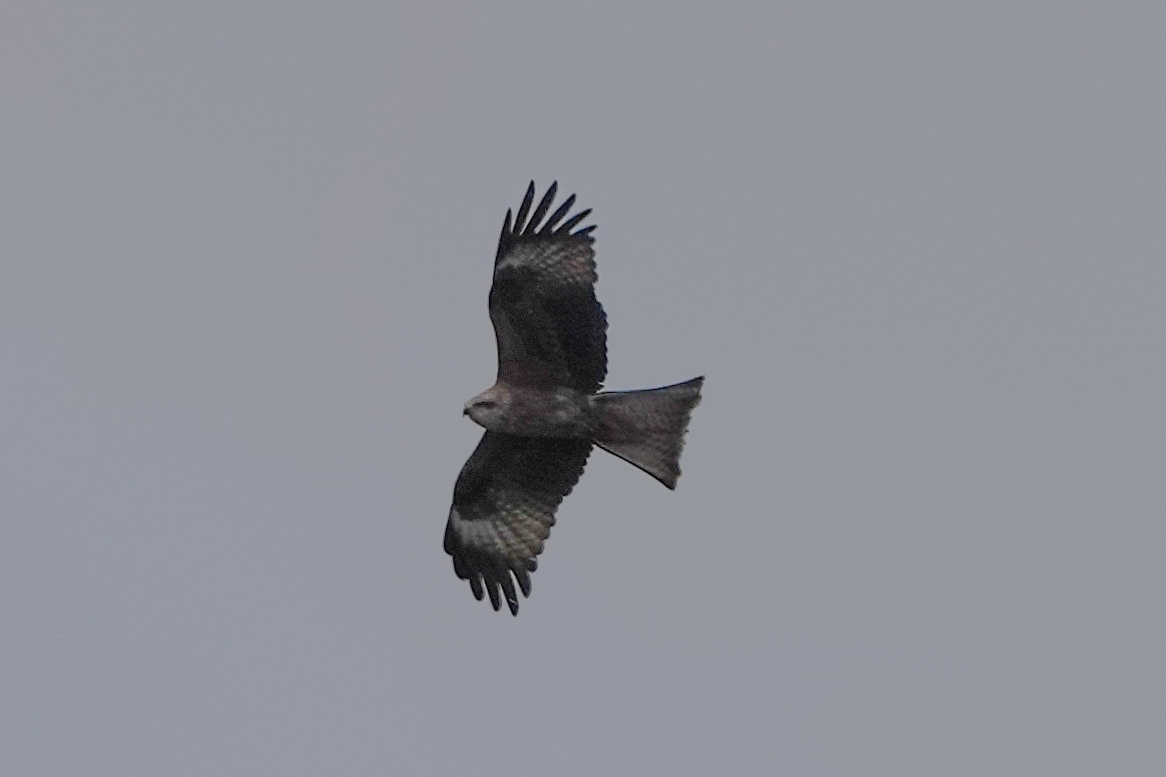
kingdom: Animalia
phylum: Chordata
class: Aves
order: Accipitriformes
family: Accipitridae
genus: Milvus
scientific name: Milvus migrans
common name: Black kite
